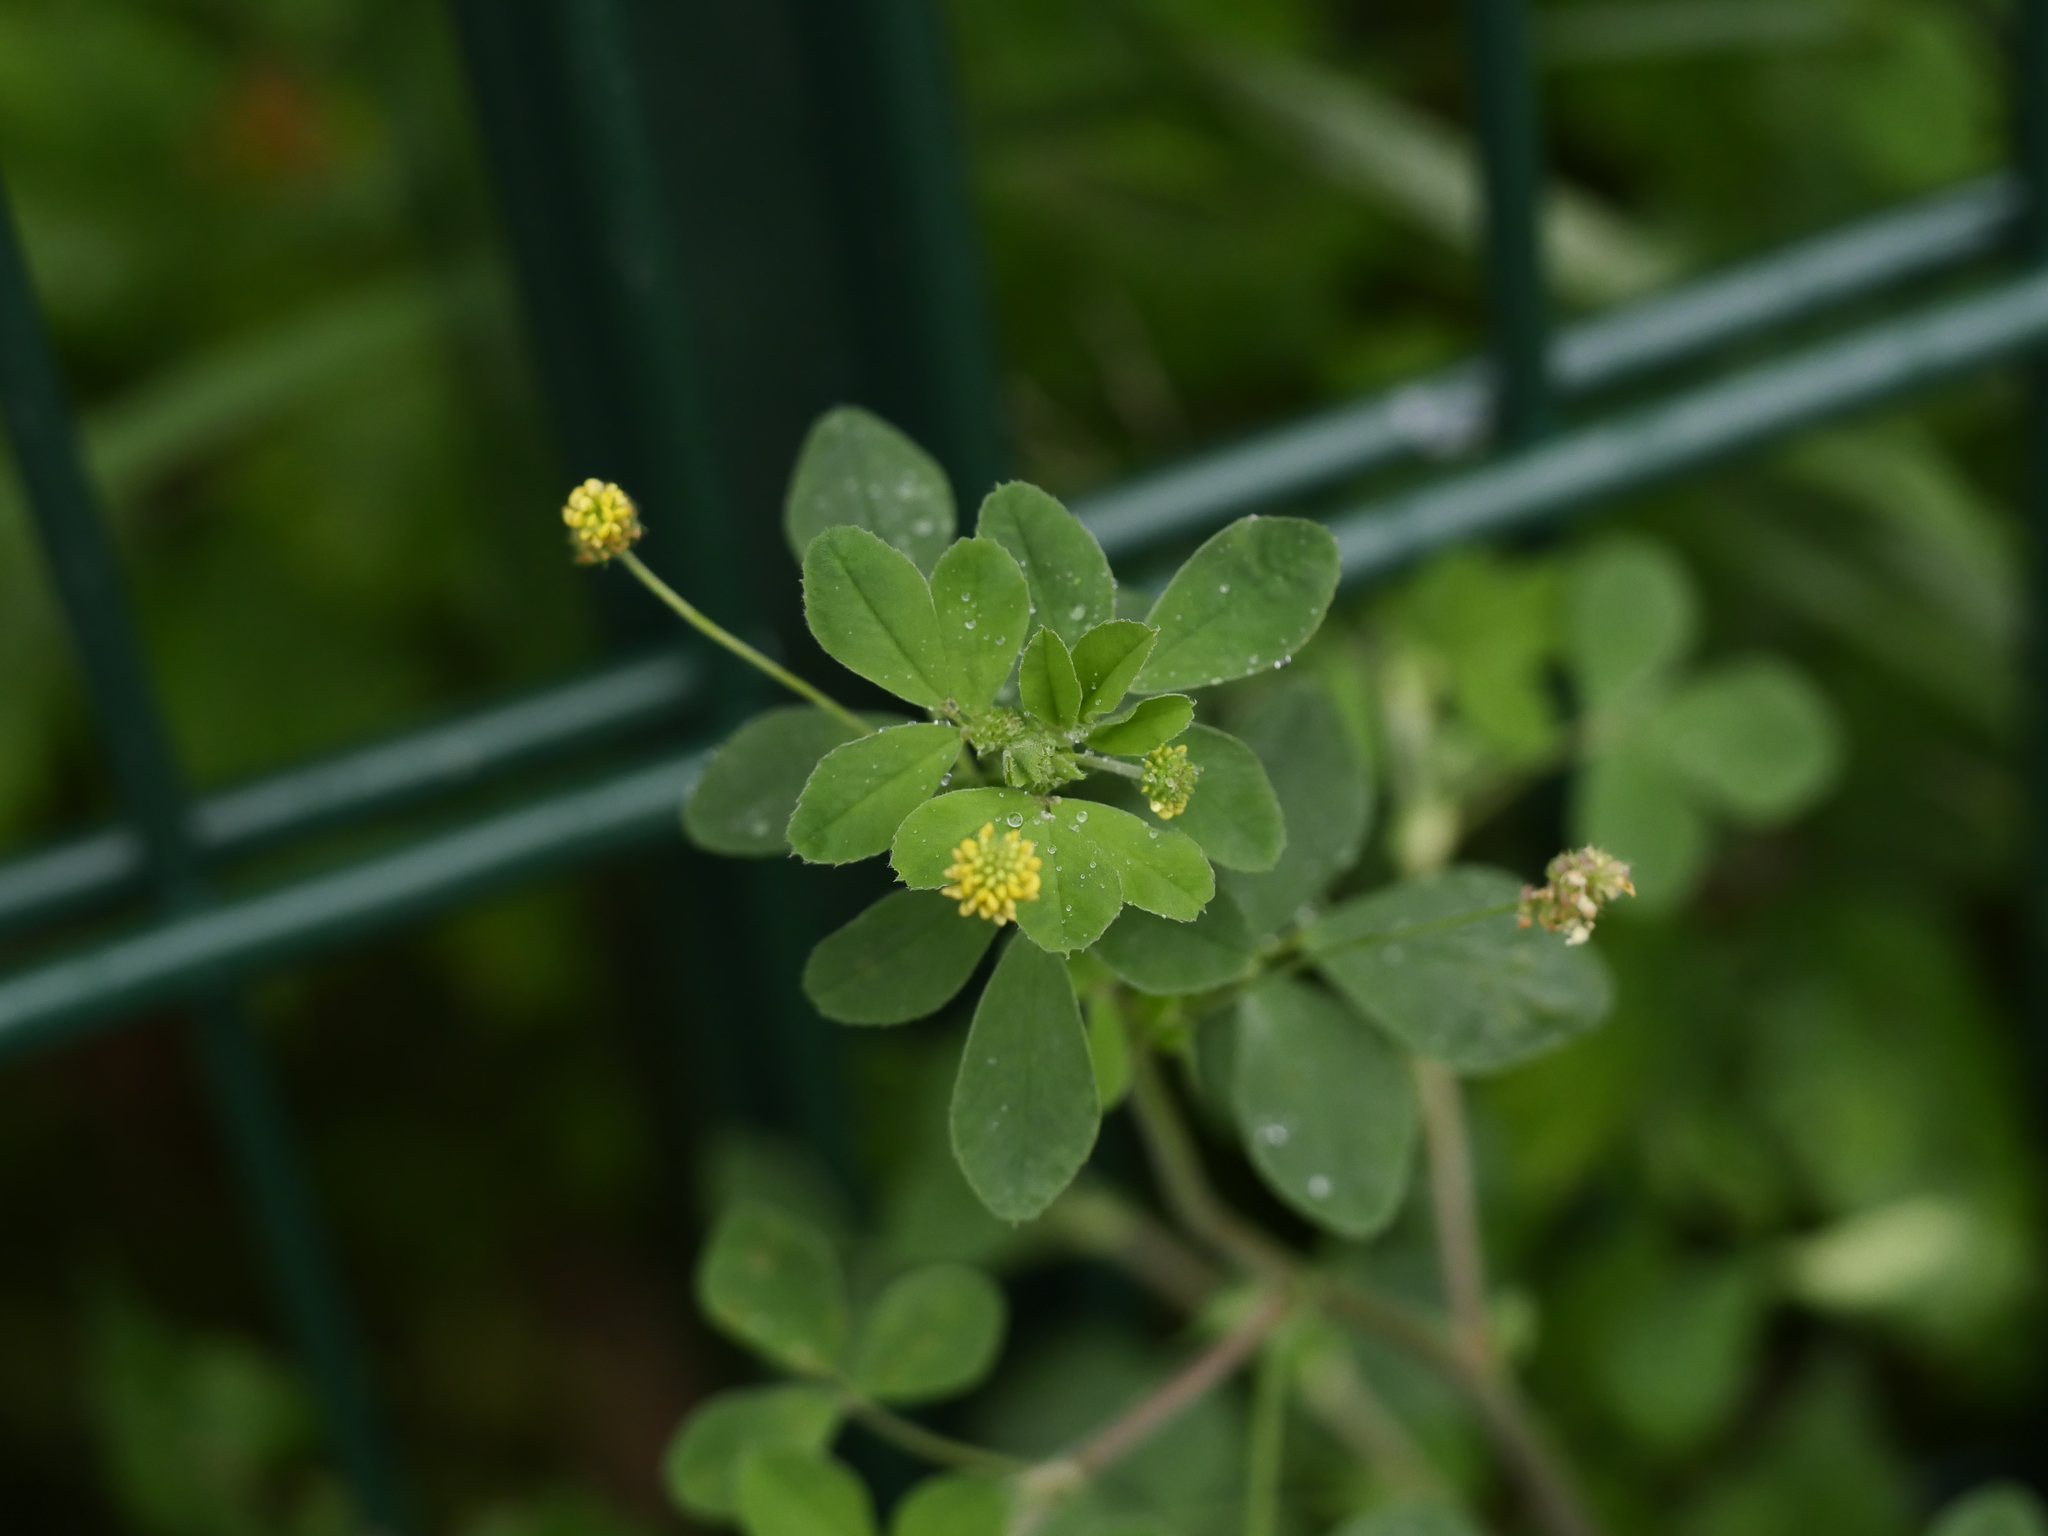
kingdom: Plantae
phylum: Tracheophyta
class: Magnoliopsida
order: Fabales
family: Fabaceae
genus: Medicago
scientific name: Medicago lupulina
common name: Black medick
